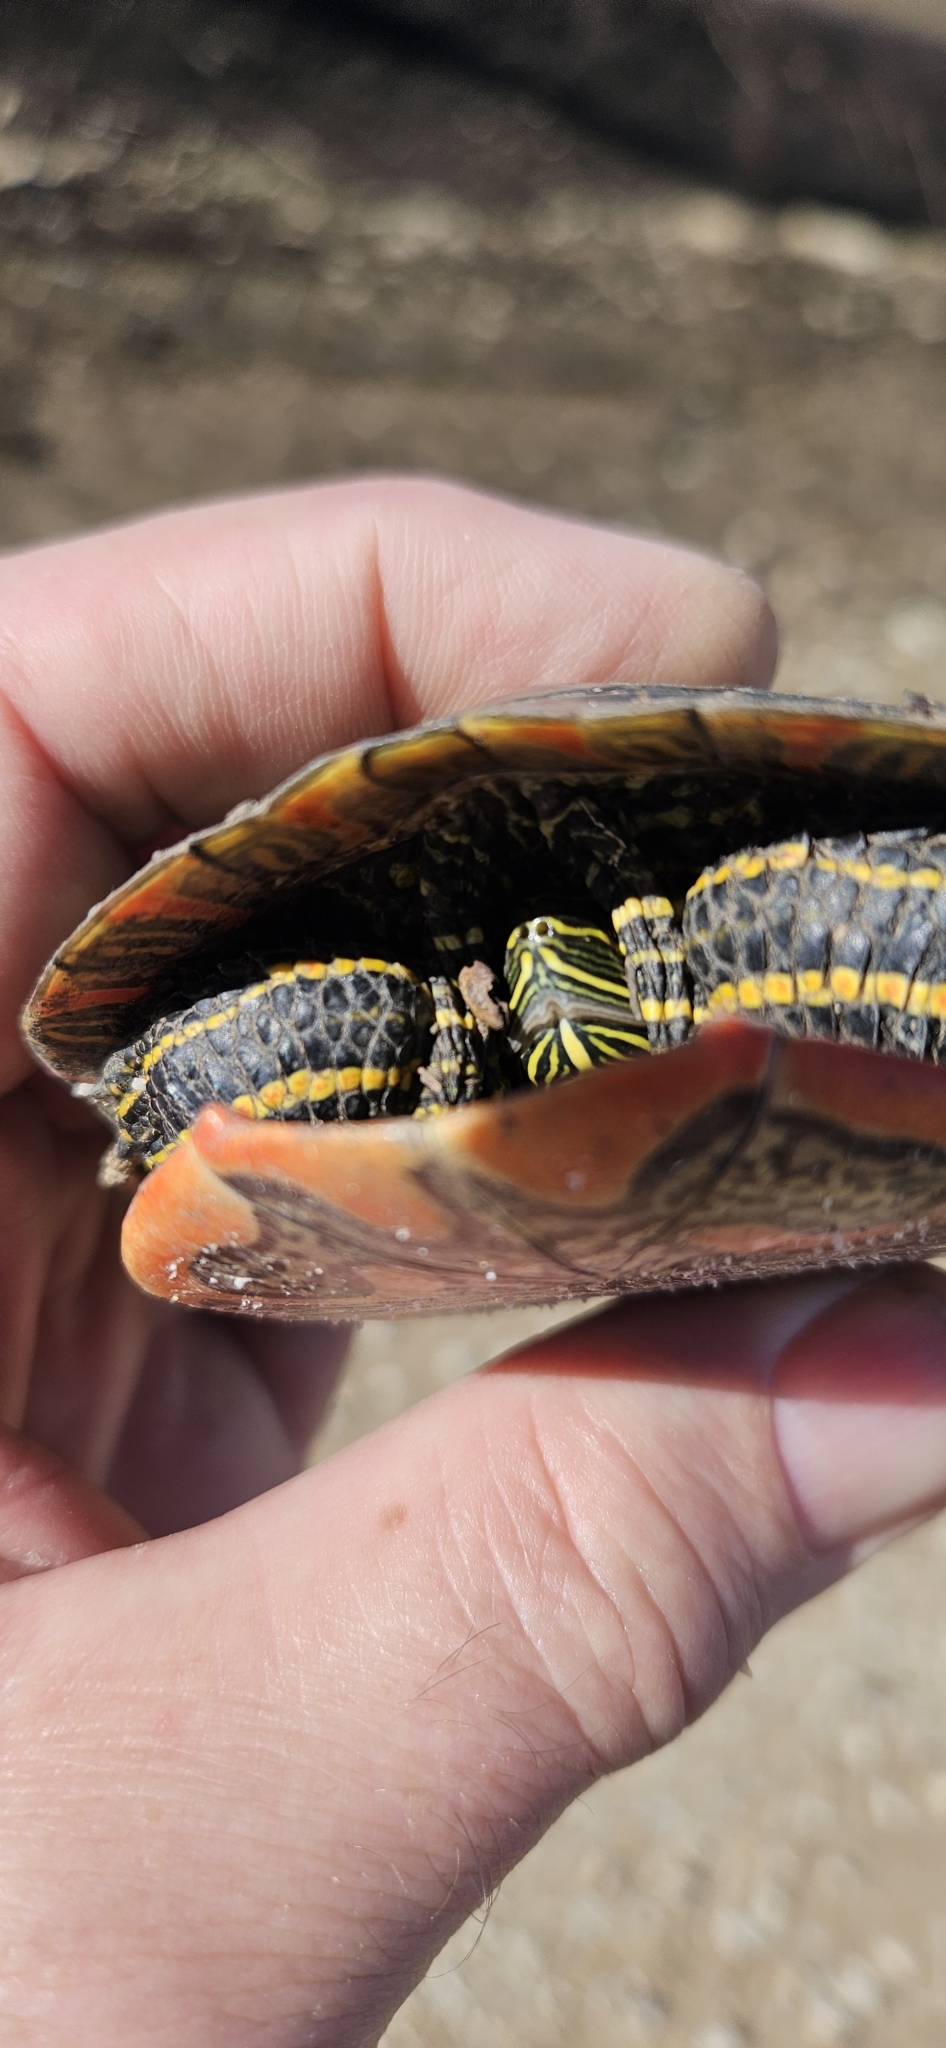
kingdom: Animalia
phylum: Chordata
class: Testudines
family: Emydidae
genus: Chrysemys
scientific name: Chrysemys picta
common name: Painted turtle
